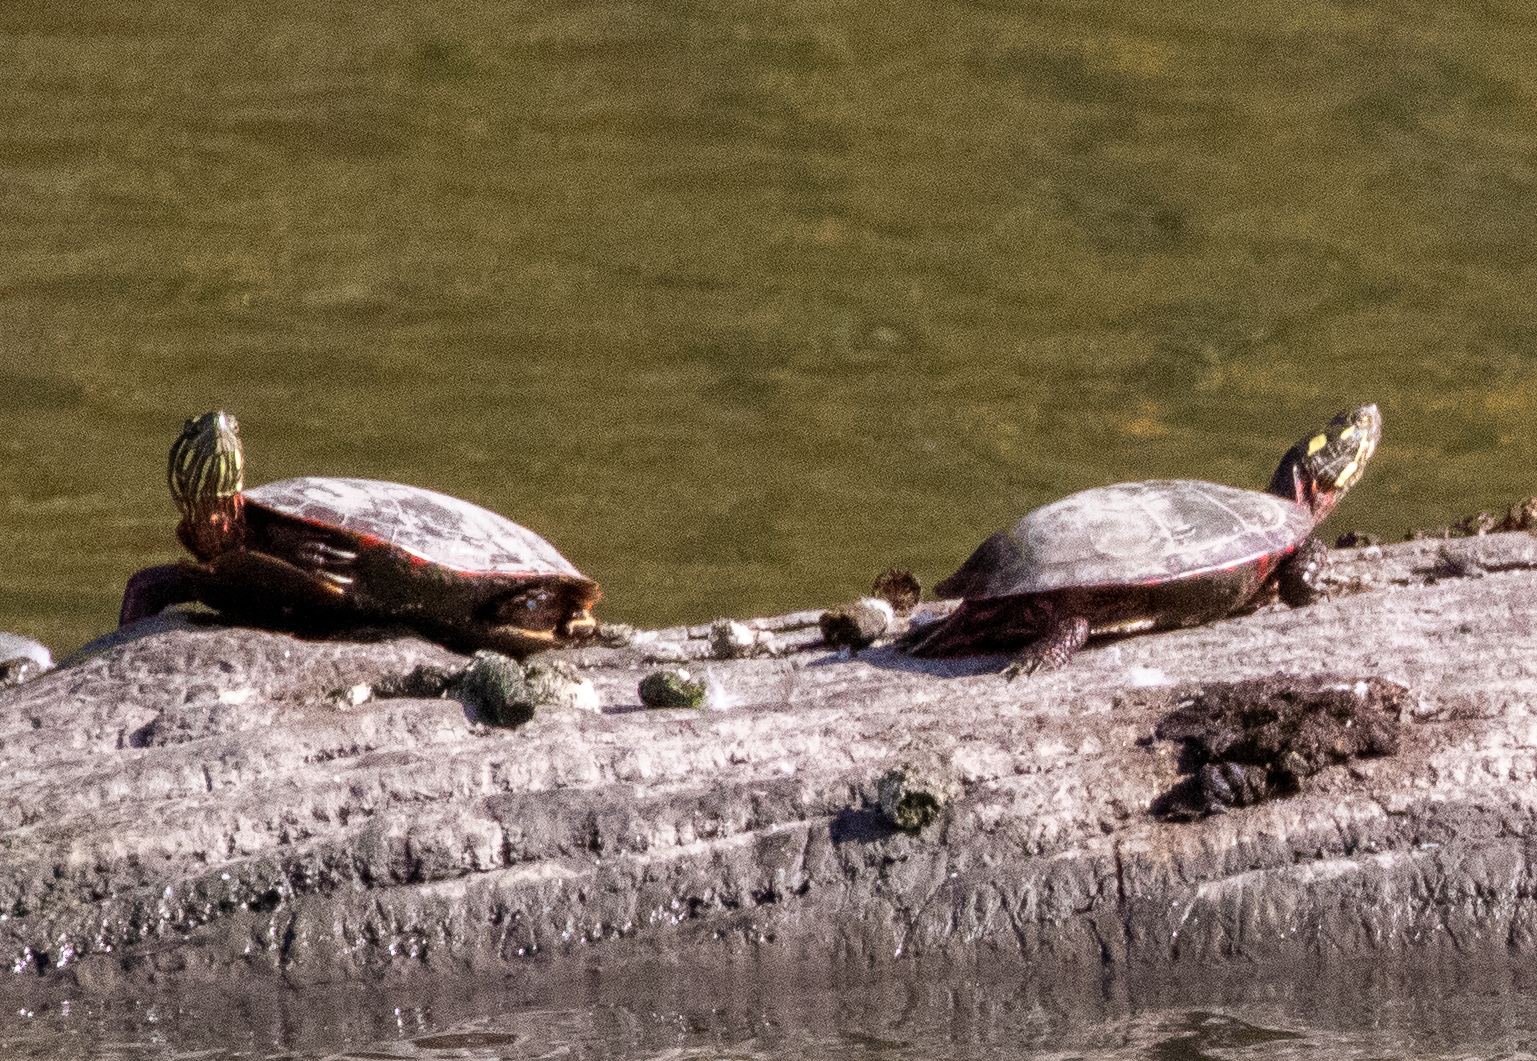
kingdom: Animalia
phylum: Chordata
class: Testudines
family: Emydidae
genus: Chrysemys
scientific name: Chrysemys picta
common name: Painted turtle
